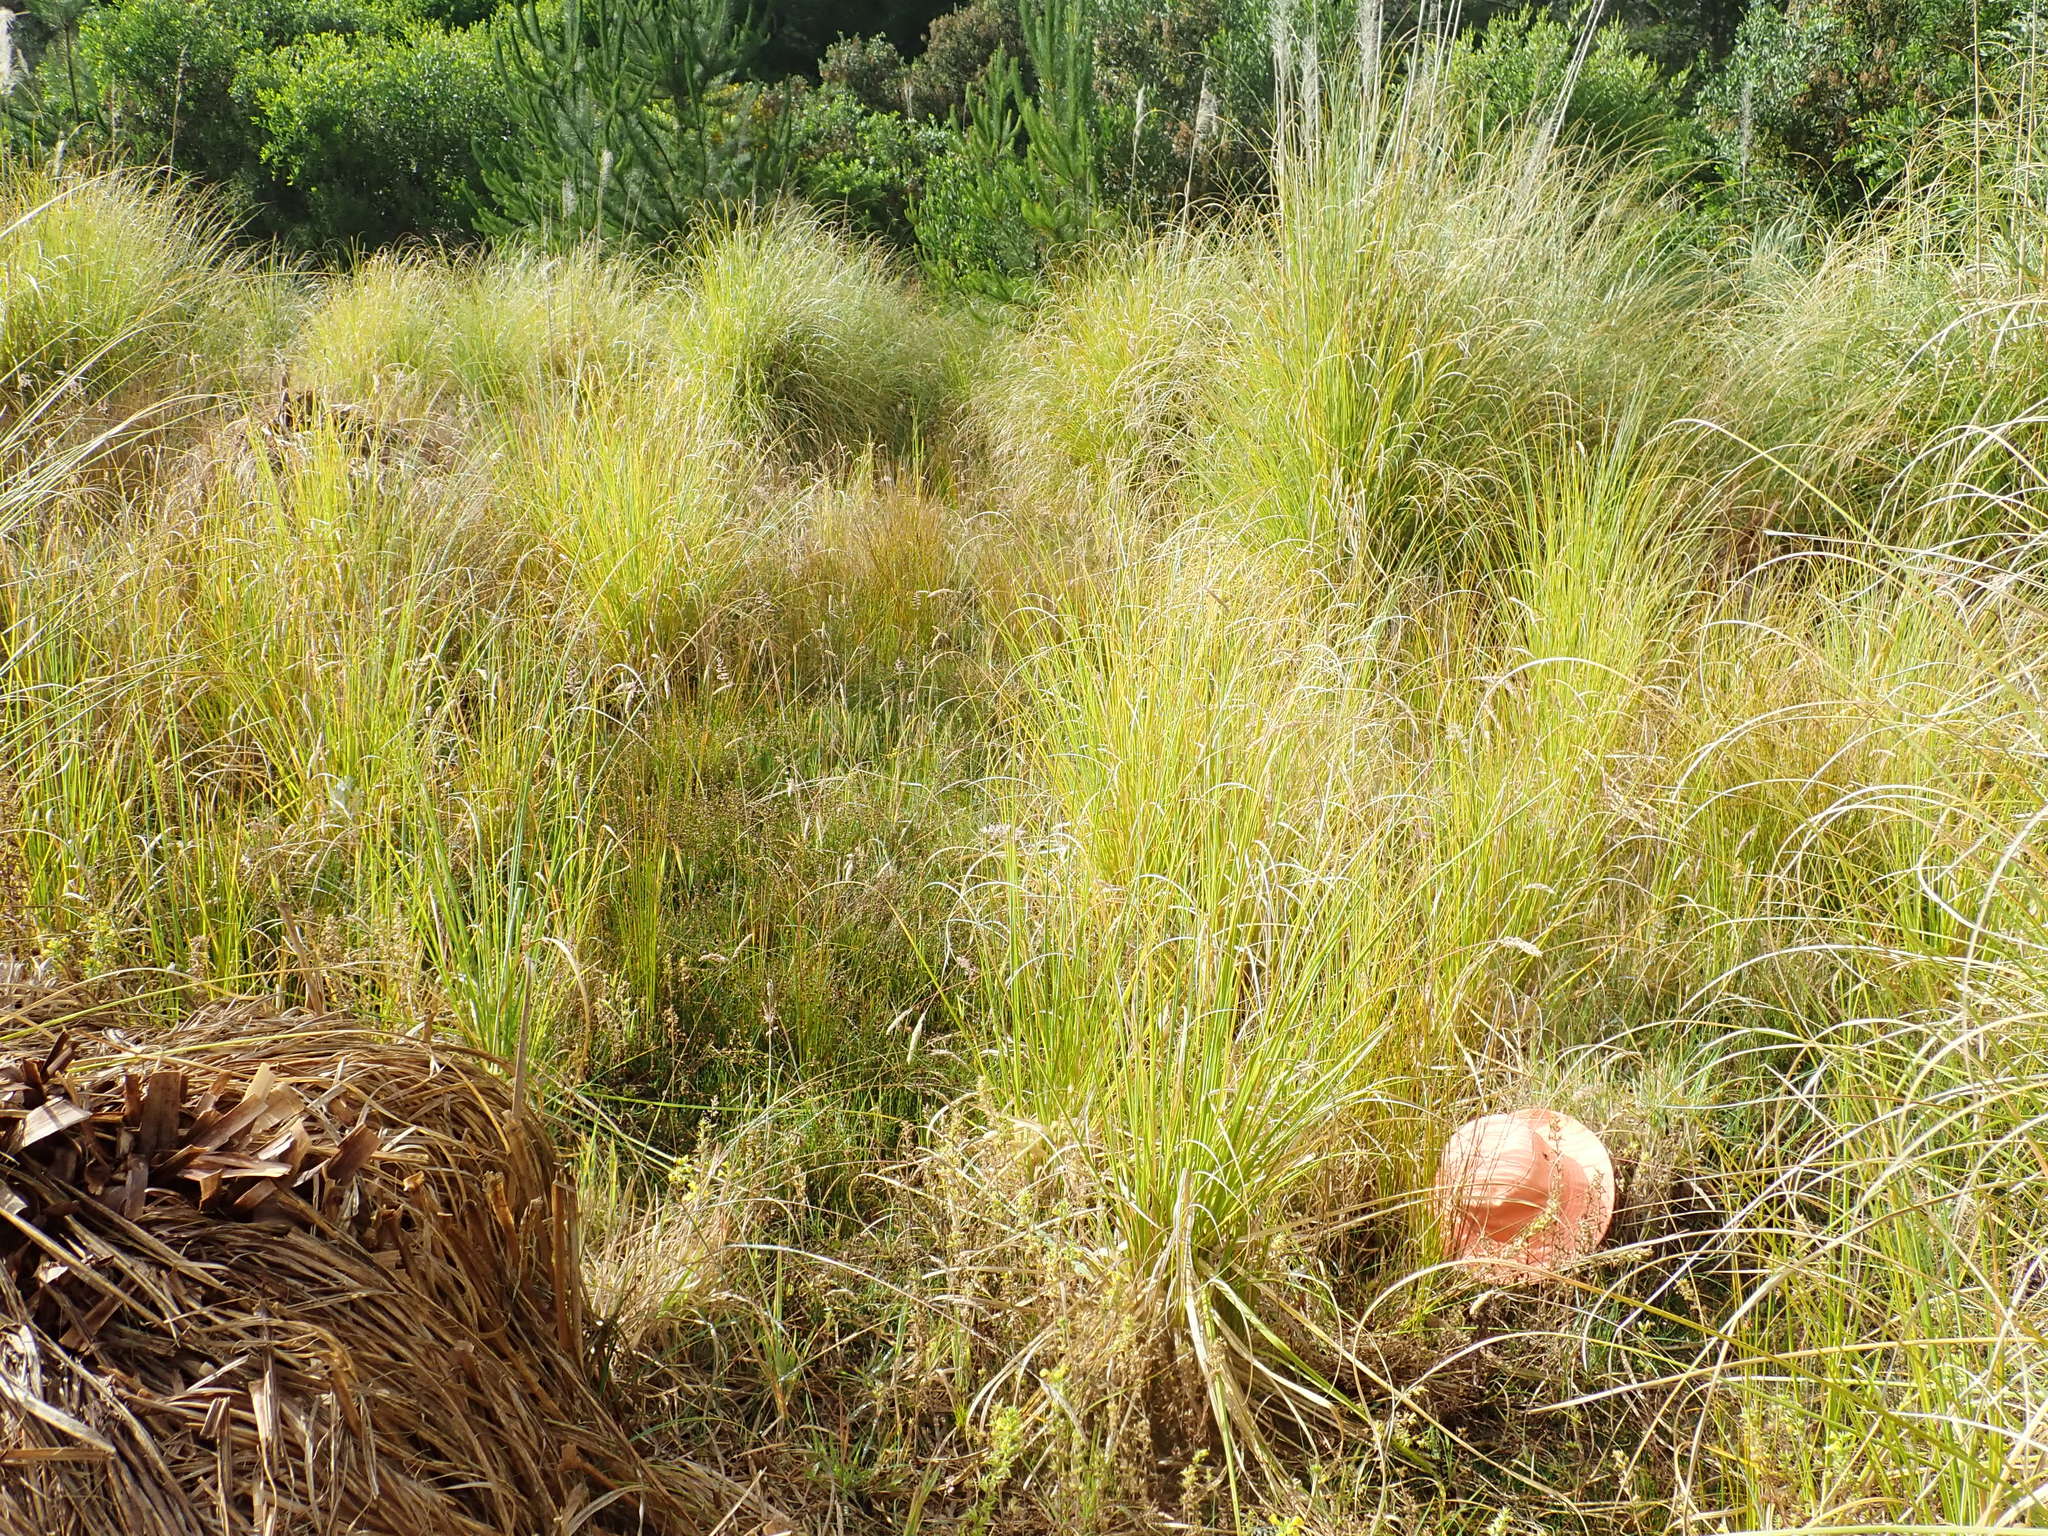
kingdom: Plantae
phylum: Tracheophyta
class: Magnoliopsida
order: Asterales
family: Campanulaceae
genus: Lobelia
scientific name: Lobelia anceps
